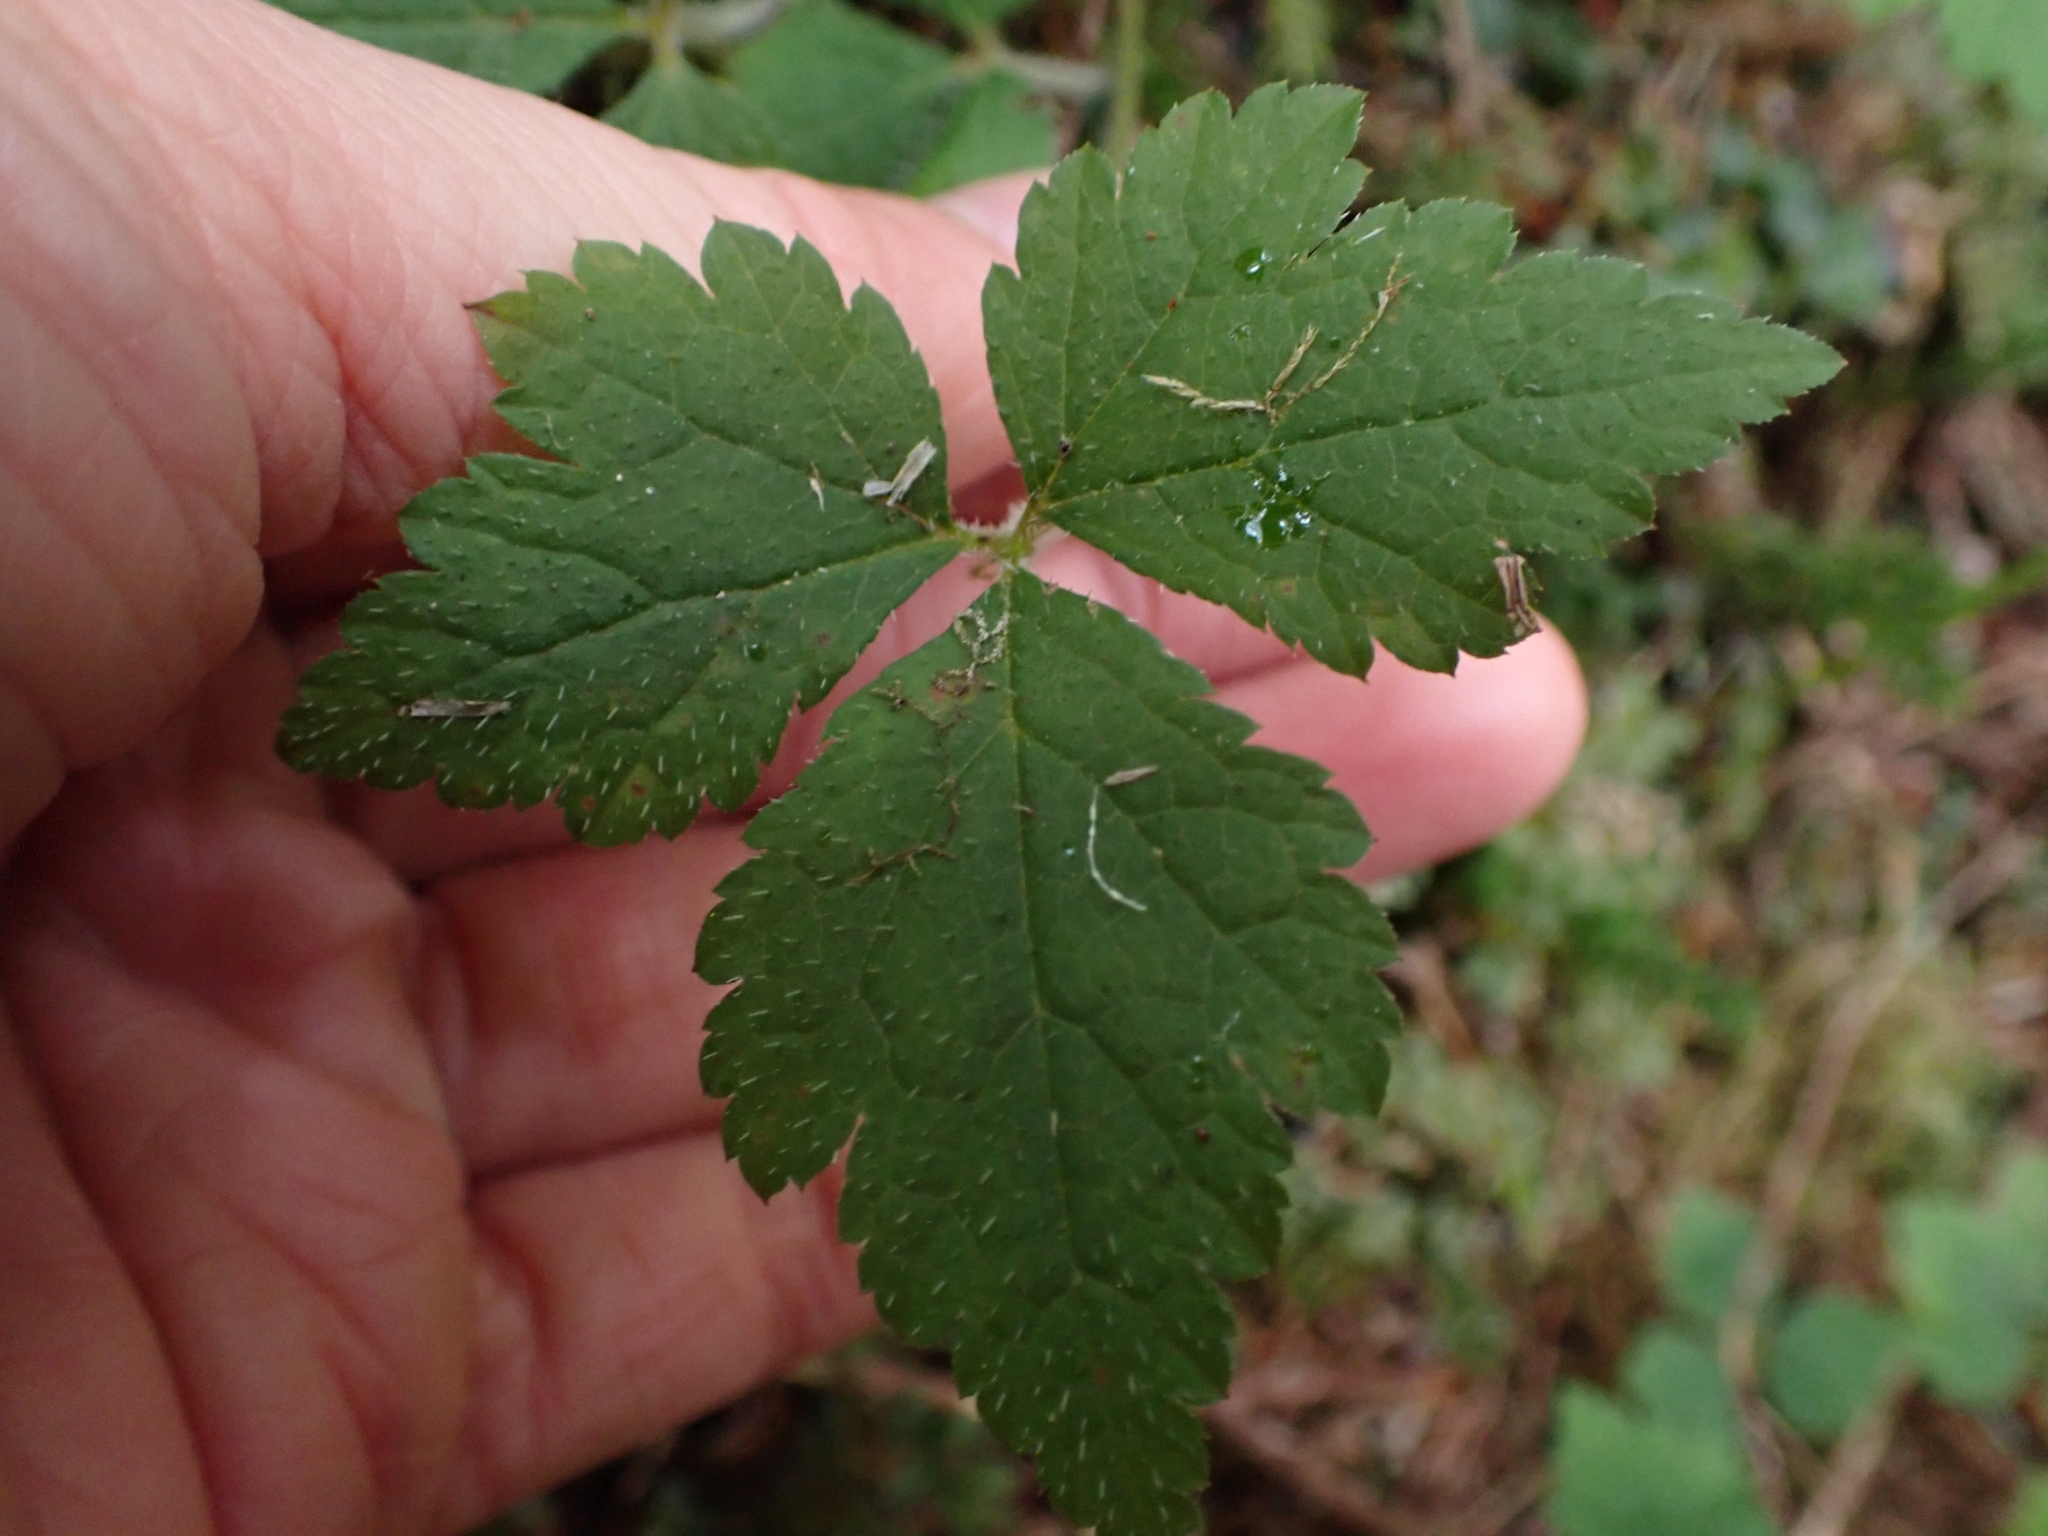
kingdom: Plantae
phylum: Tracheophyta
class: Magnoliopsida
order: Saxifragales
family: Saxifragaceae
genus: Tiarella
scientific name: Tiarella trifoliata
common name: Sugar-scoop
